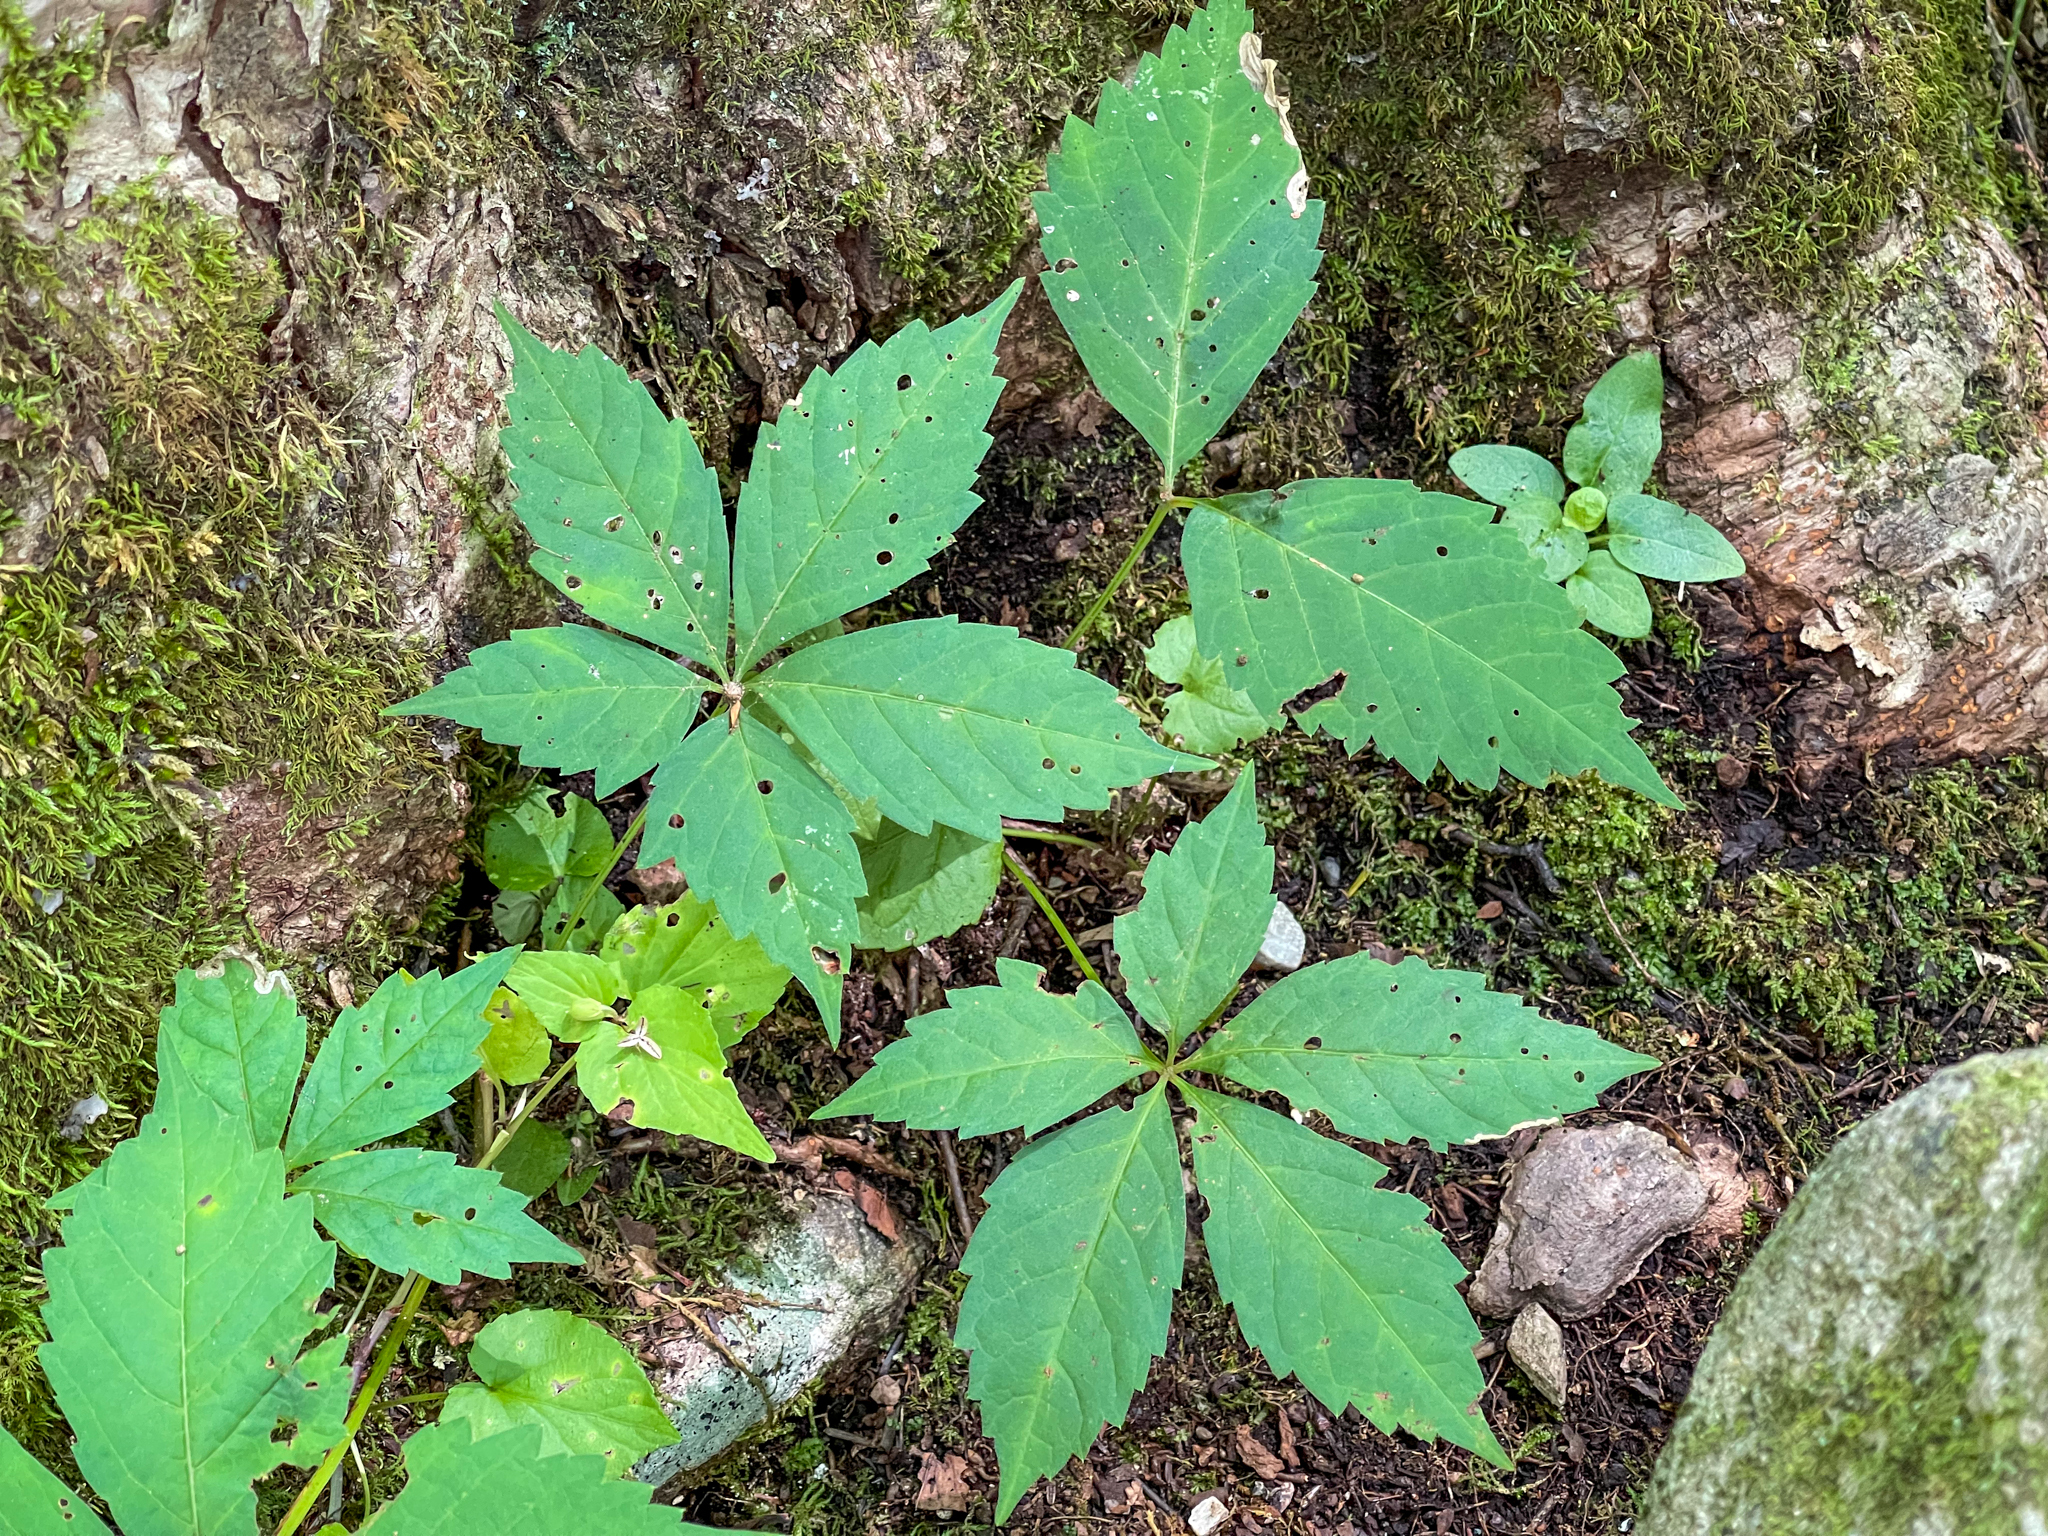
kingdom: Plantae
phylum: Tracheophyta
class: Magnoliopsida
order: Vitales
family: Vitaceae
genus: Parthenocissus
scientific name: Parthenocissus quinquefolia
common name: Virginia-creeper
